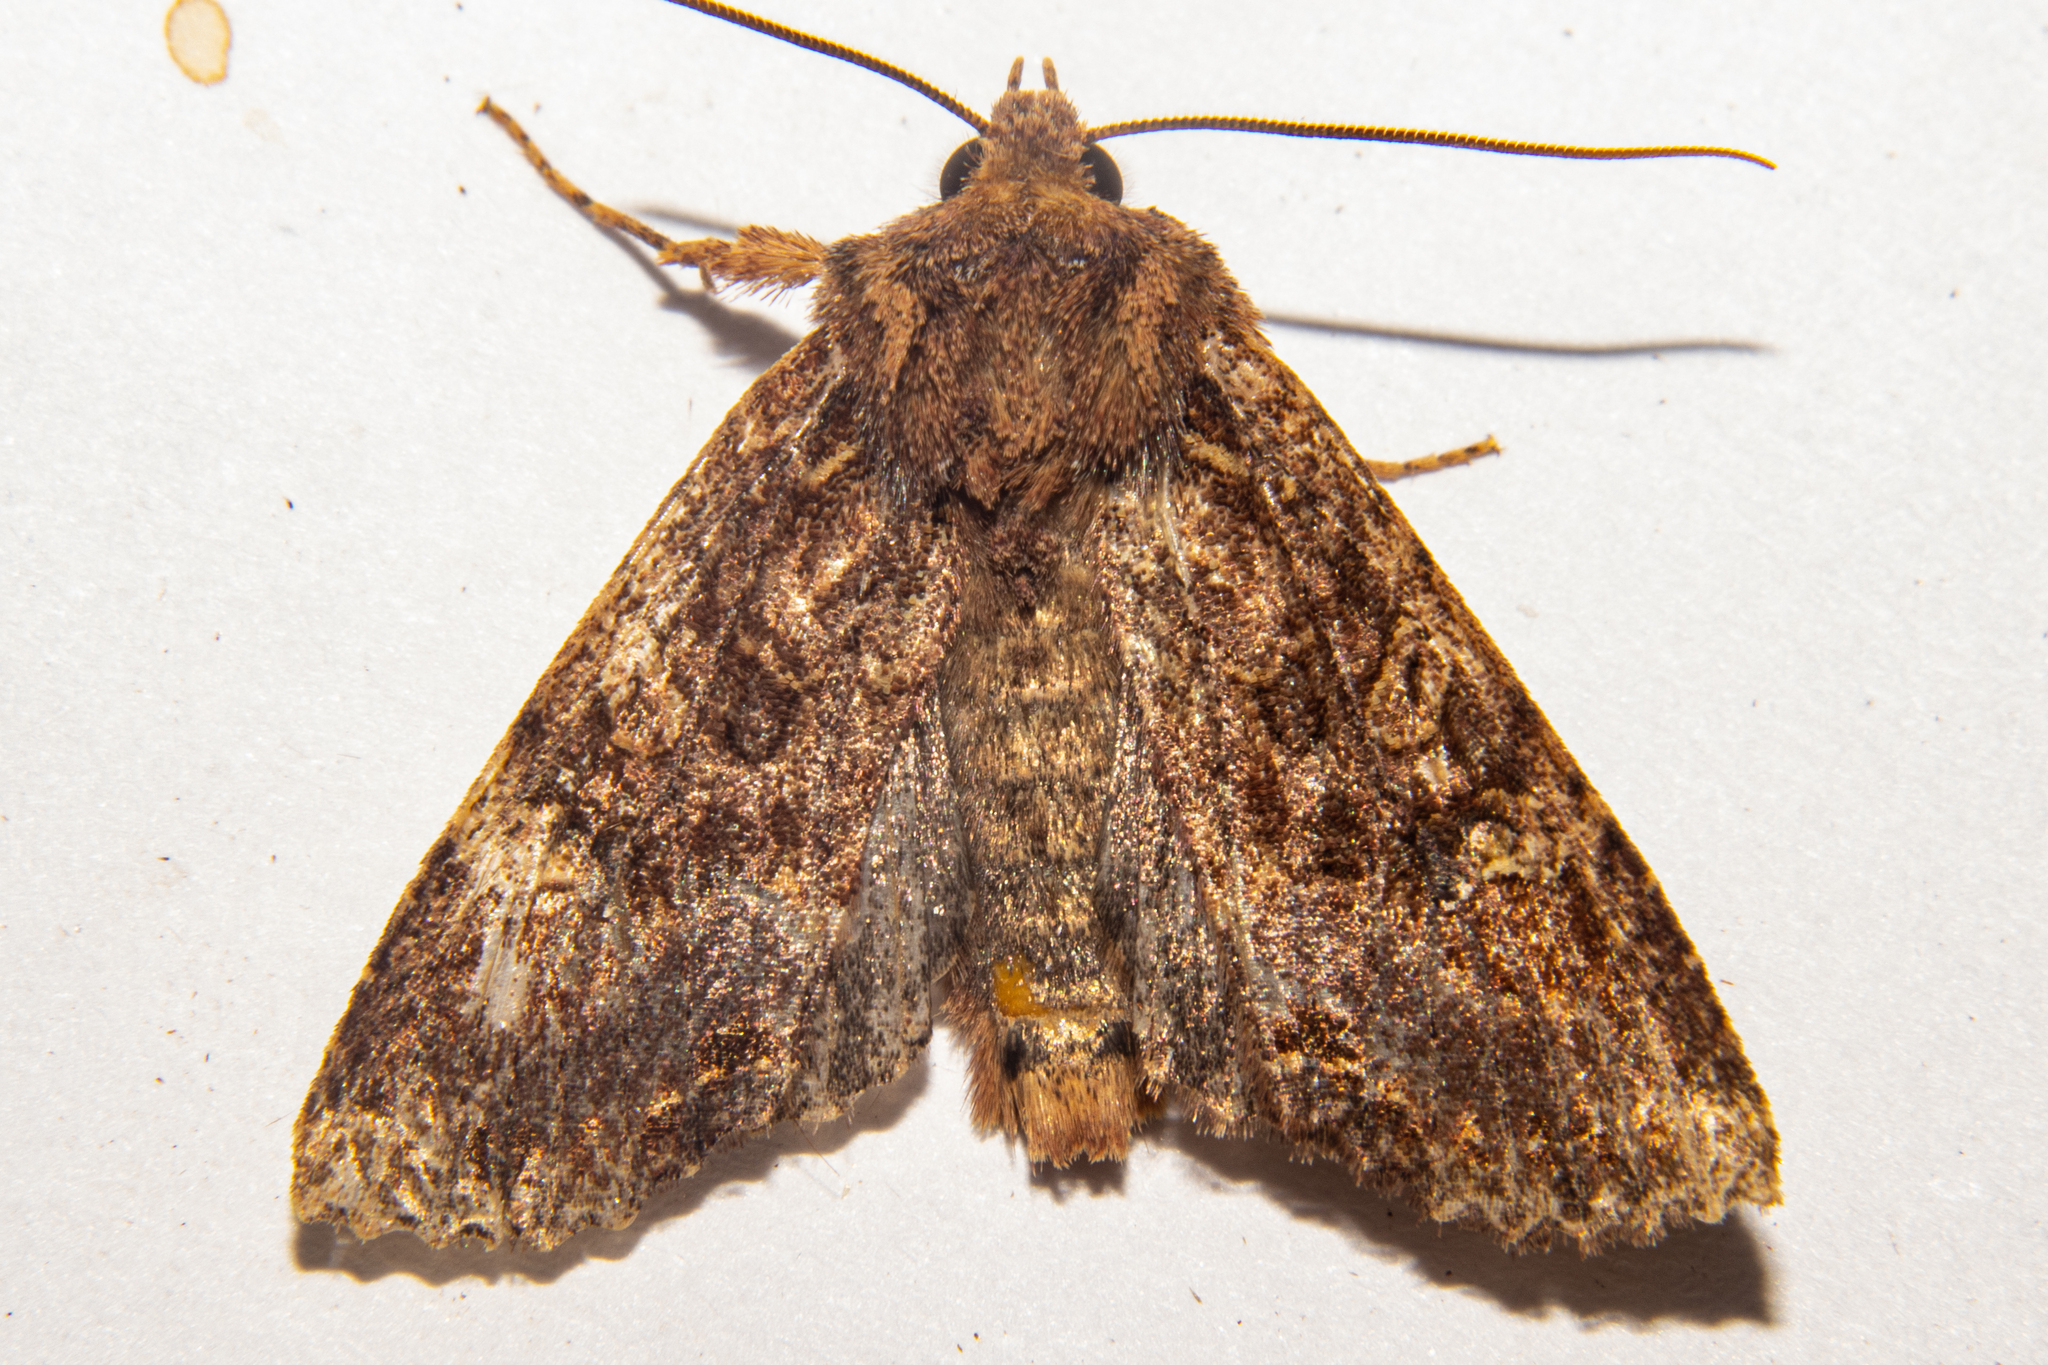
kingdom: Animalia
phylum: Arthropoda
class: Insecta
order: Lepidoptera
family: Noctuidae
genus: Meterana
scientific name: Meterana
